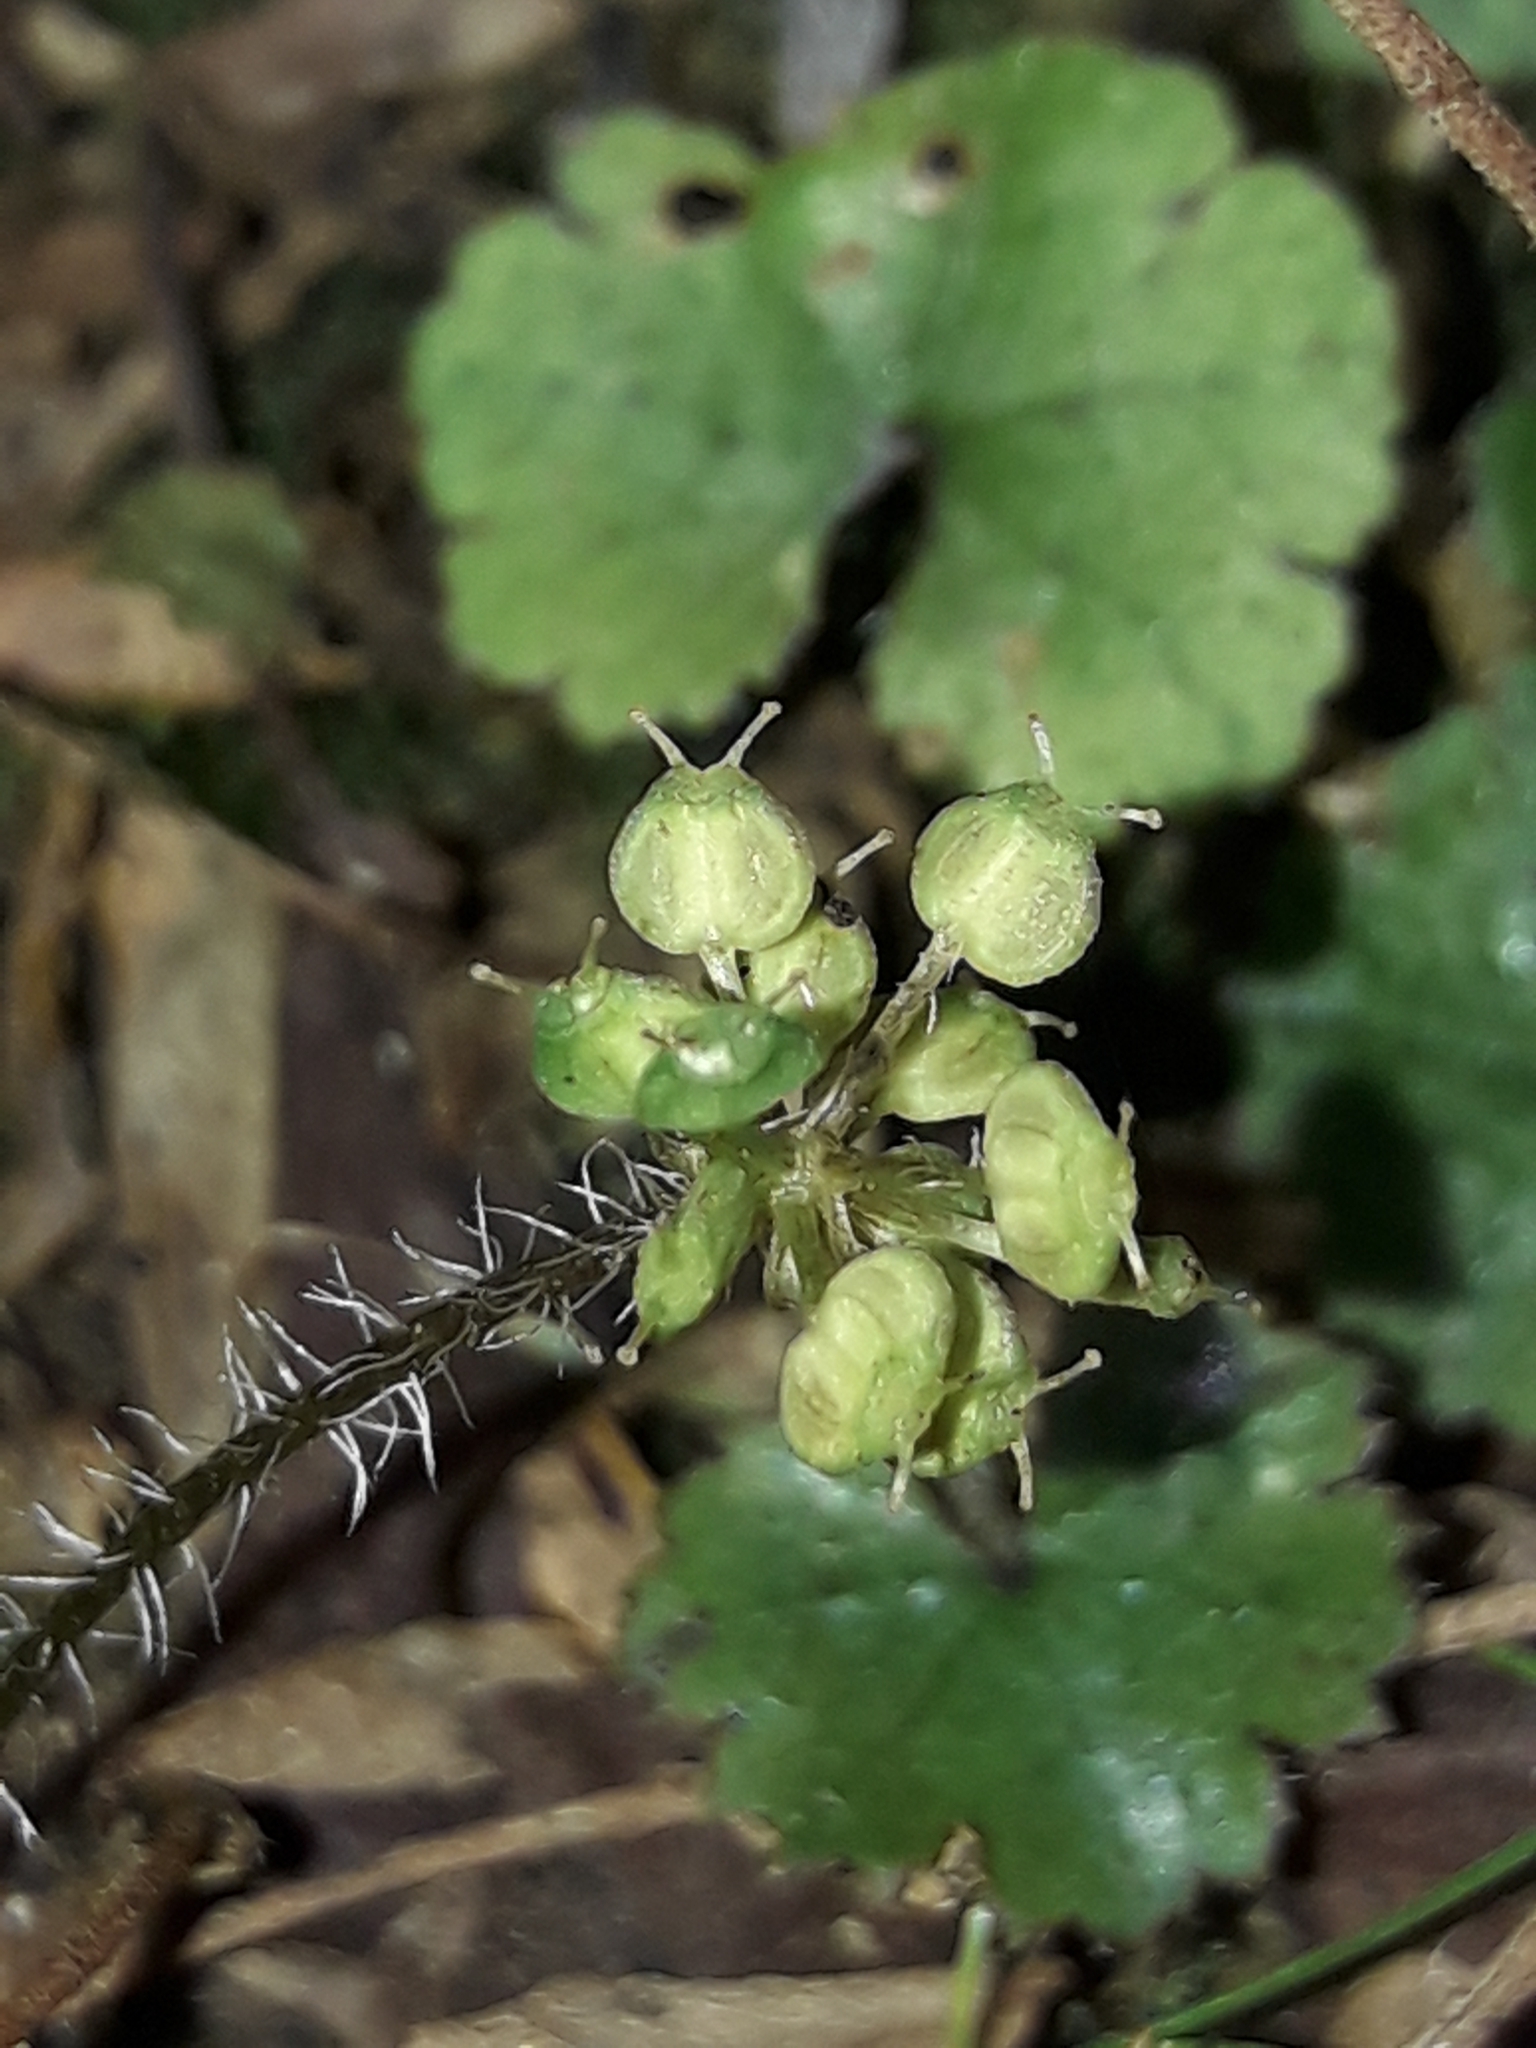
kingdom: Plantae
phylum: Tracheophyta
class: Magnoliopsida
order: Apiales
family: Araliaceae
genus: Hydrocotyle
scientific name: Hydrocotyle robusta
